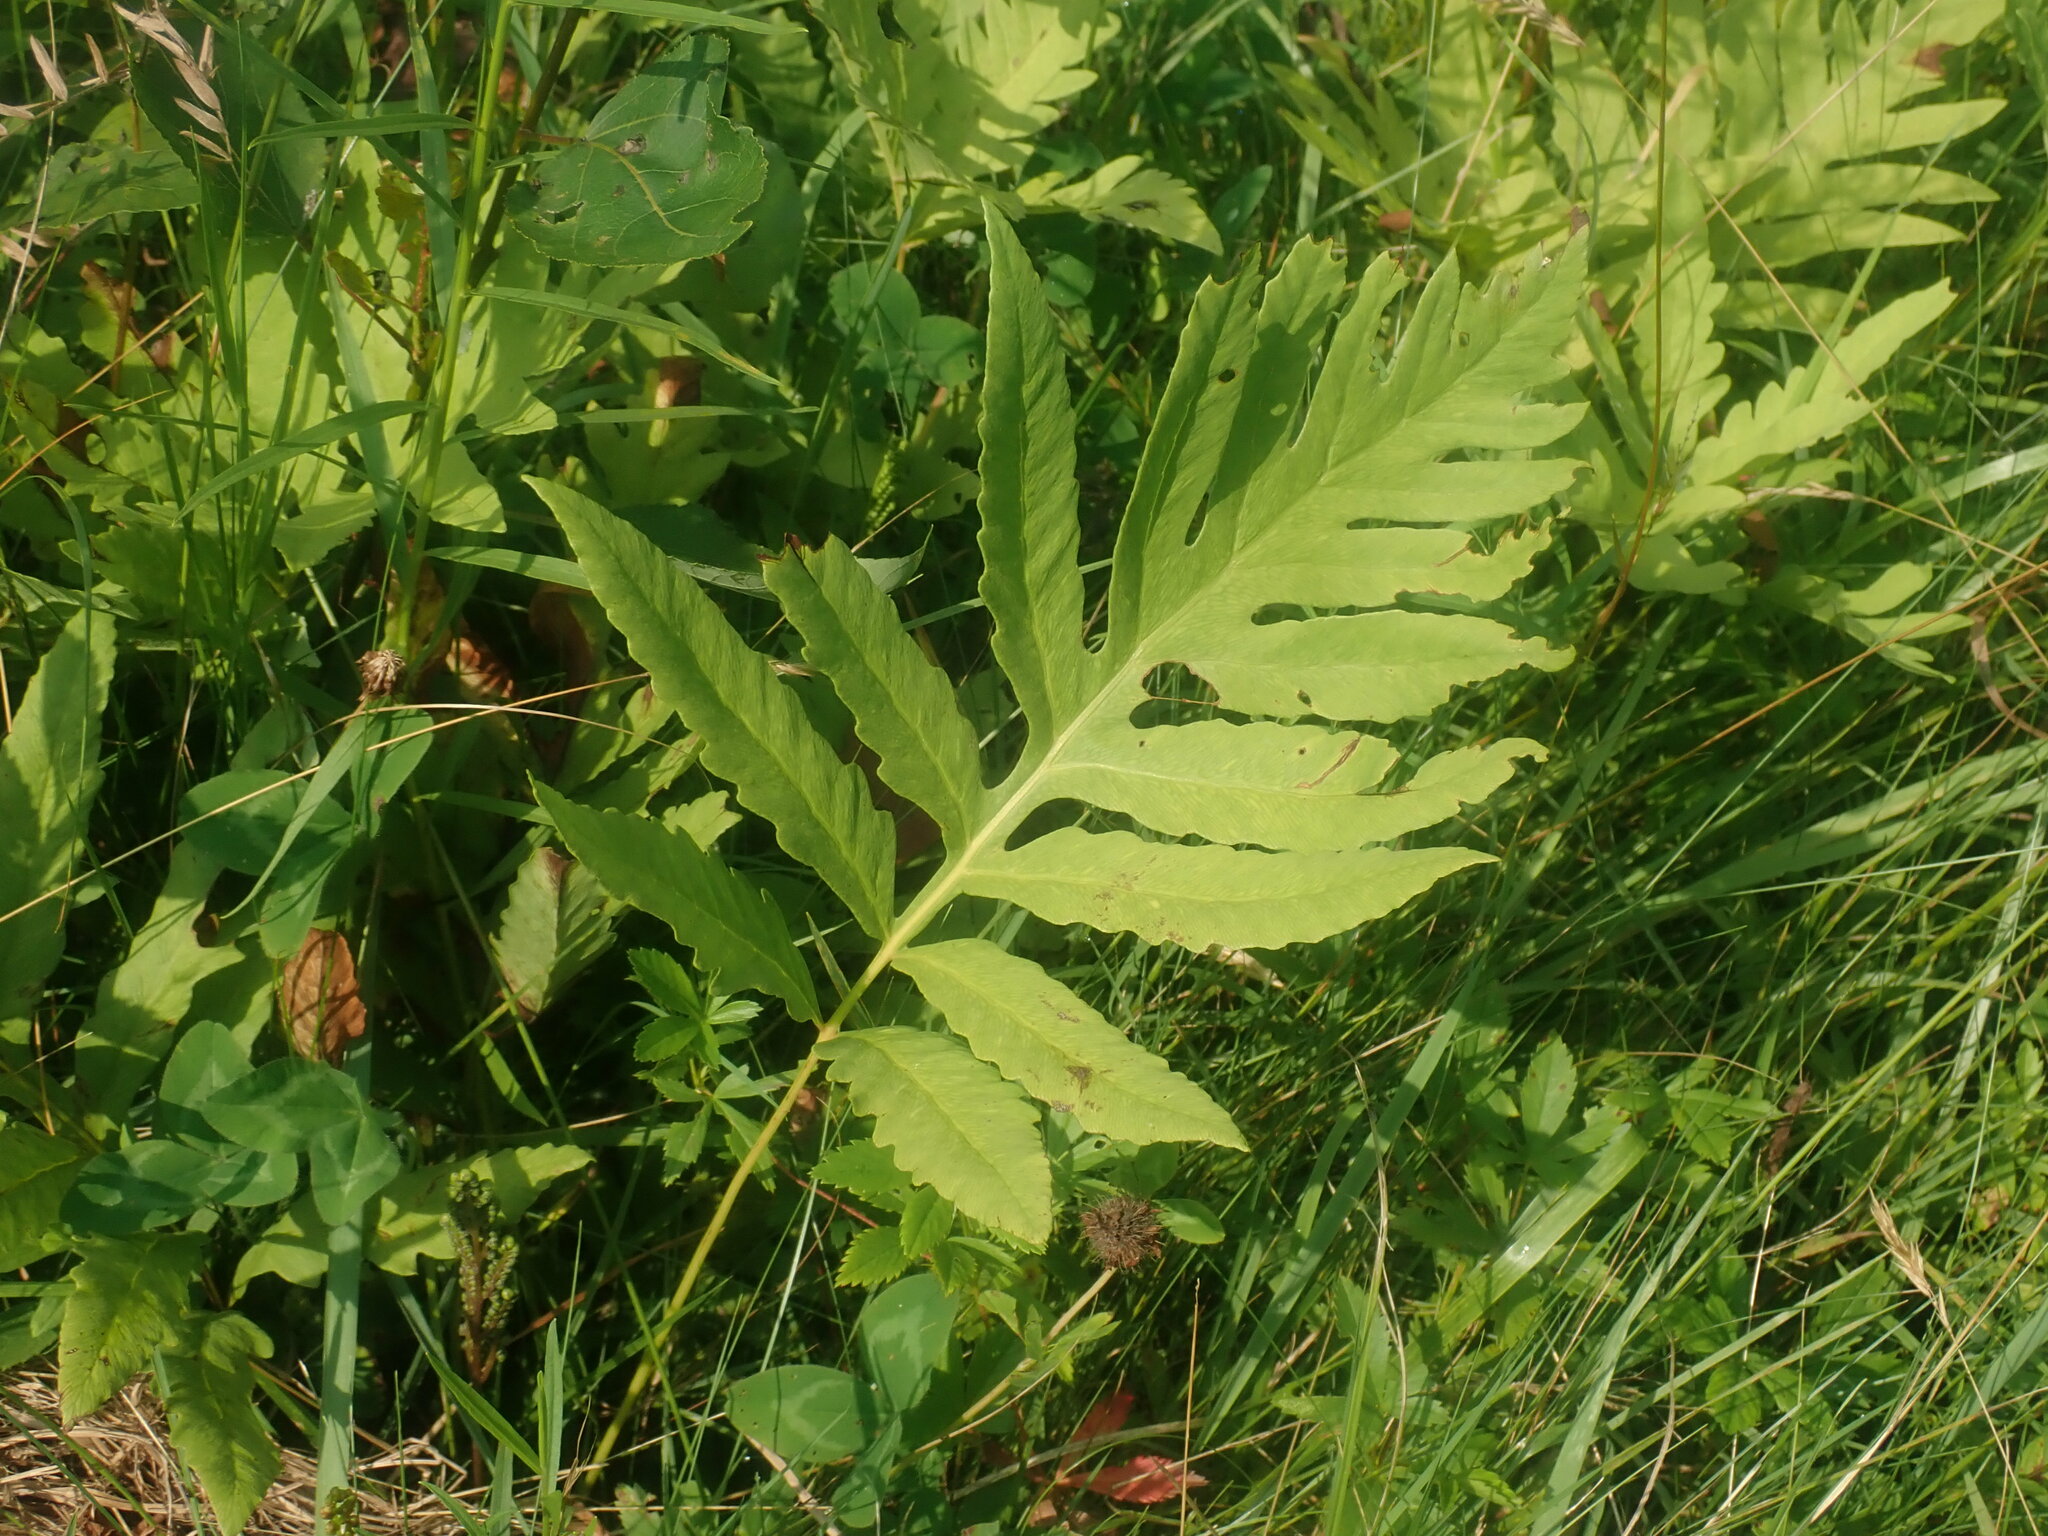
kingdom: Plantae
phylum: Tracheophyta
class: Polypodiopsida
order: Polypodiales
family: Onocleaceae
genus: Onoclea
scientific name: Onoclea sensibilis
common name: Sensitive fern
